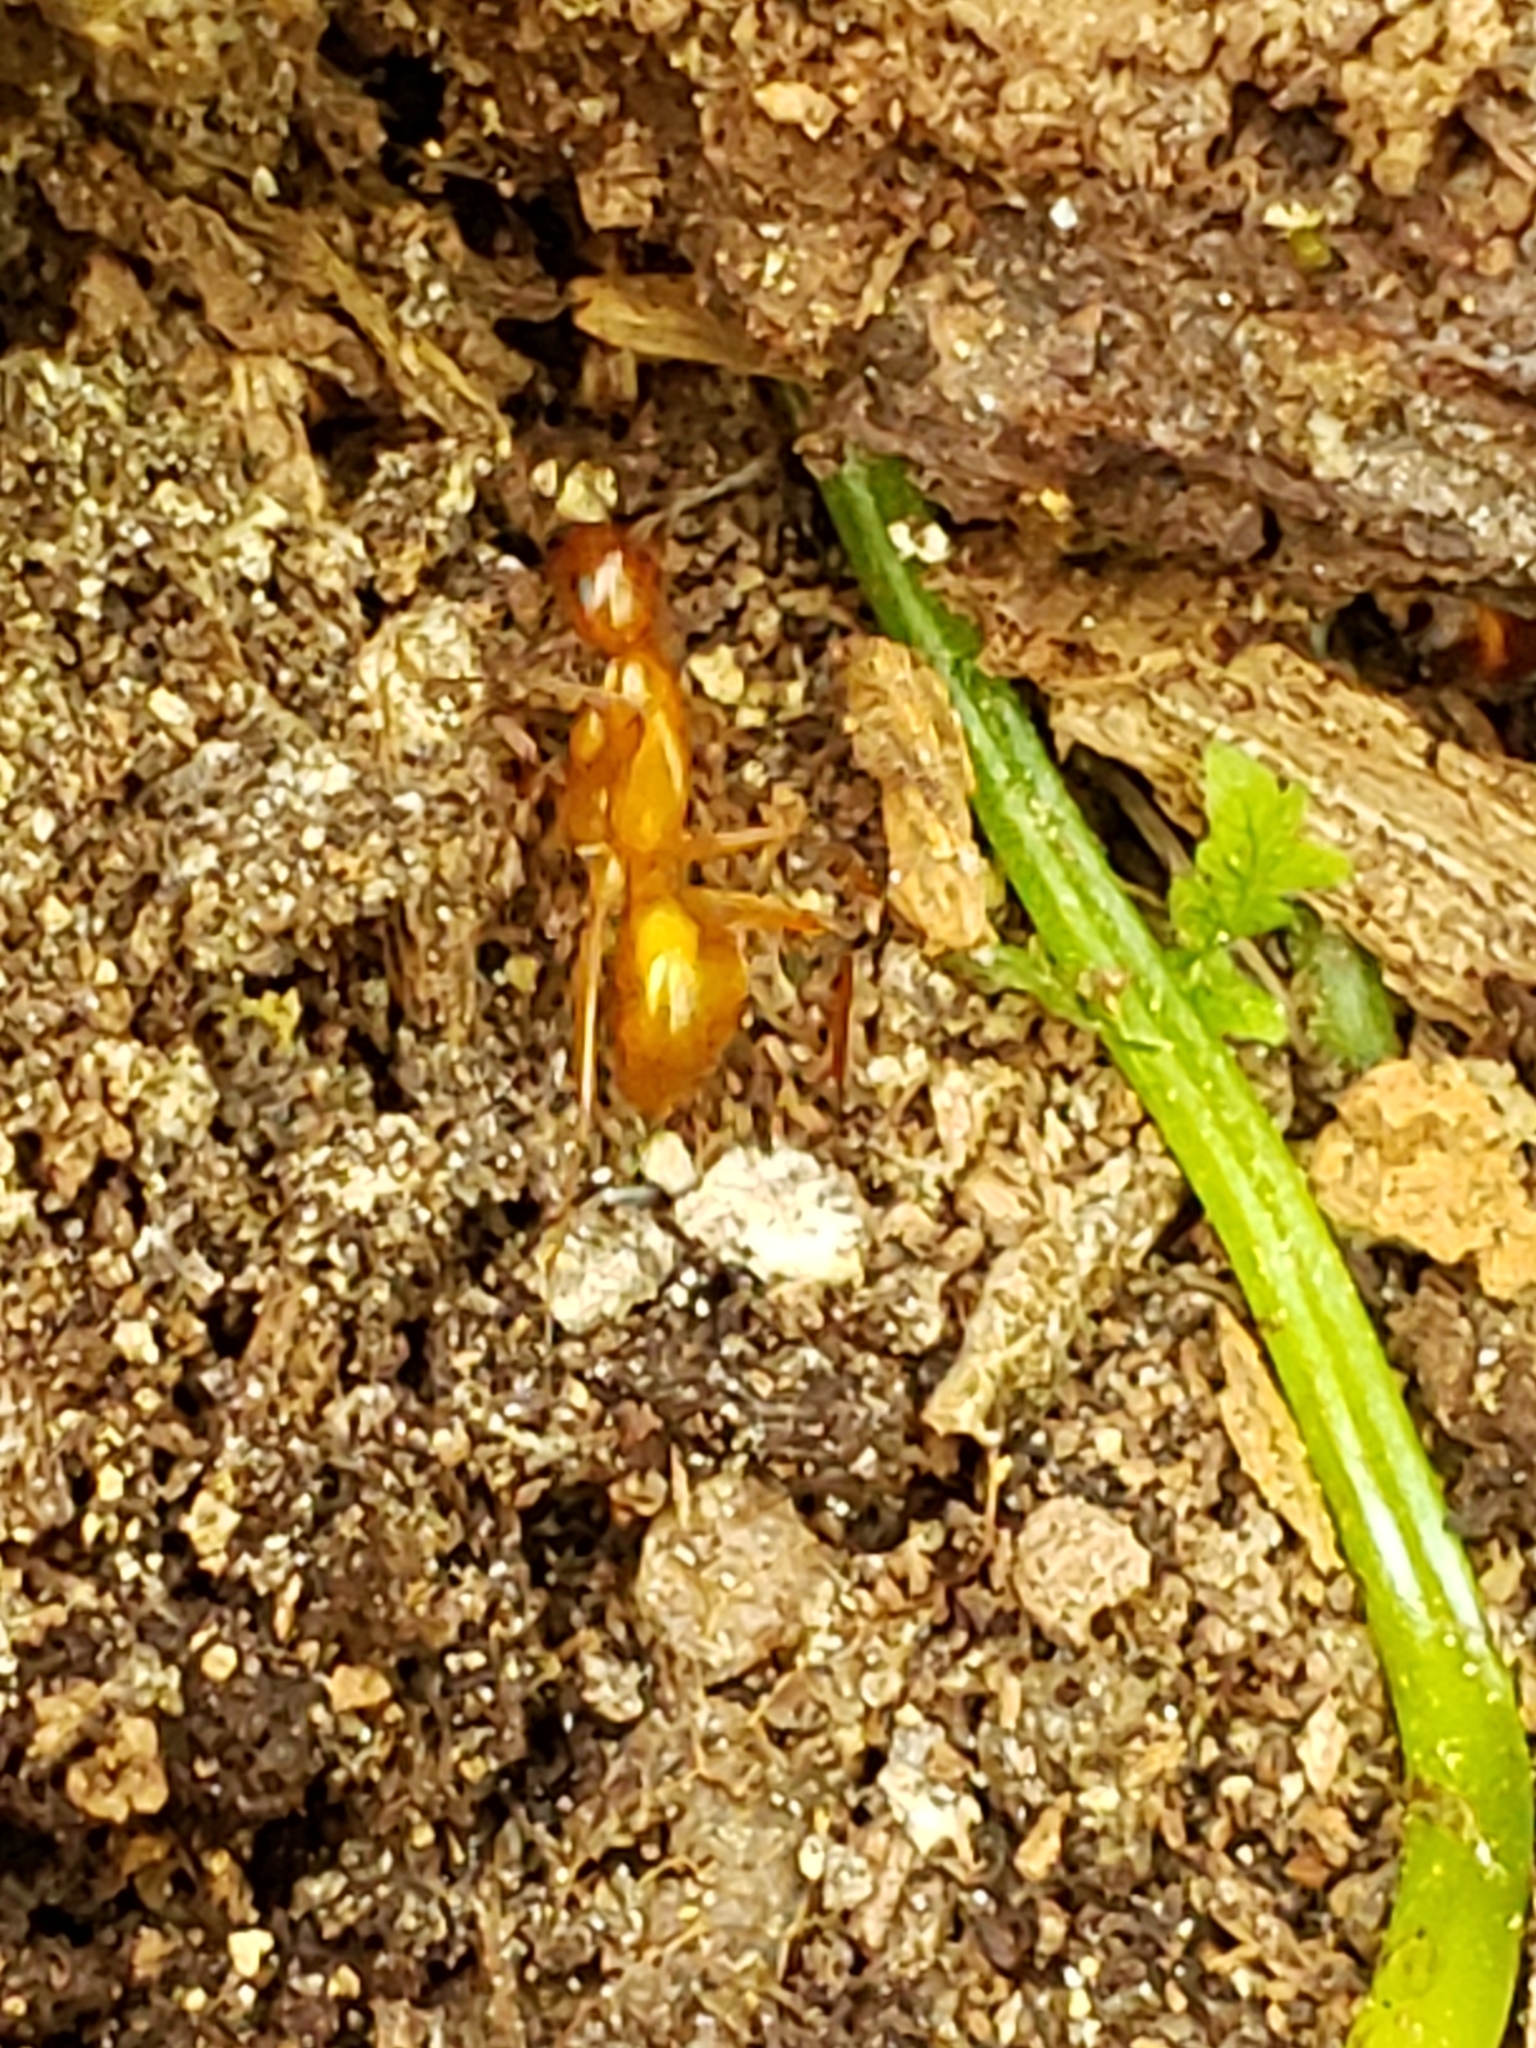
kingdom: Animalia
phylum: Arthropoda
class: Insecta
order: Hymenoptera
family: Formicidae
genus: Camponotus
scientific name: Camponotus castaneus
